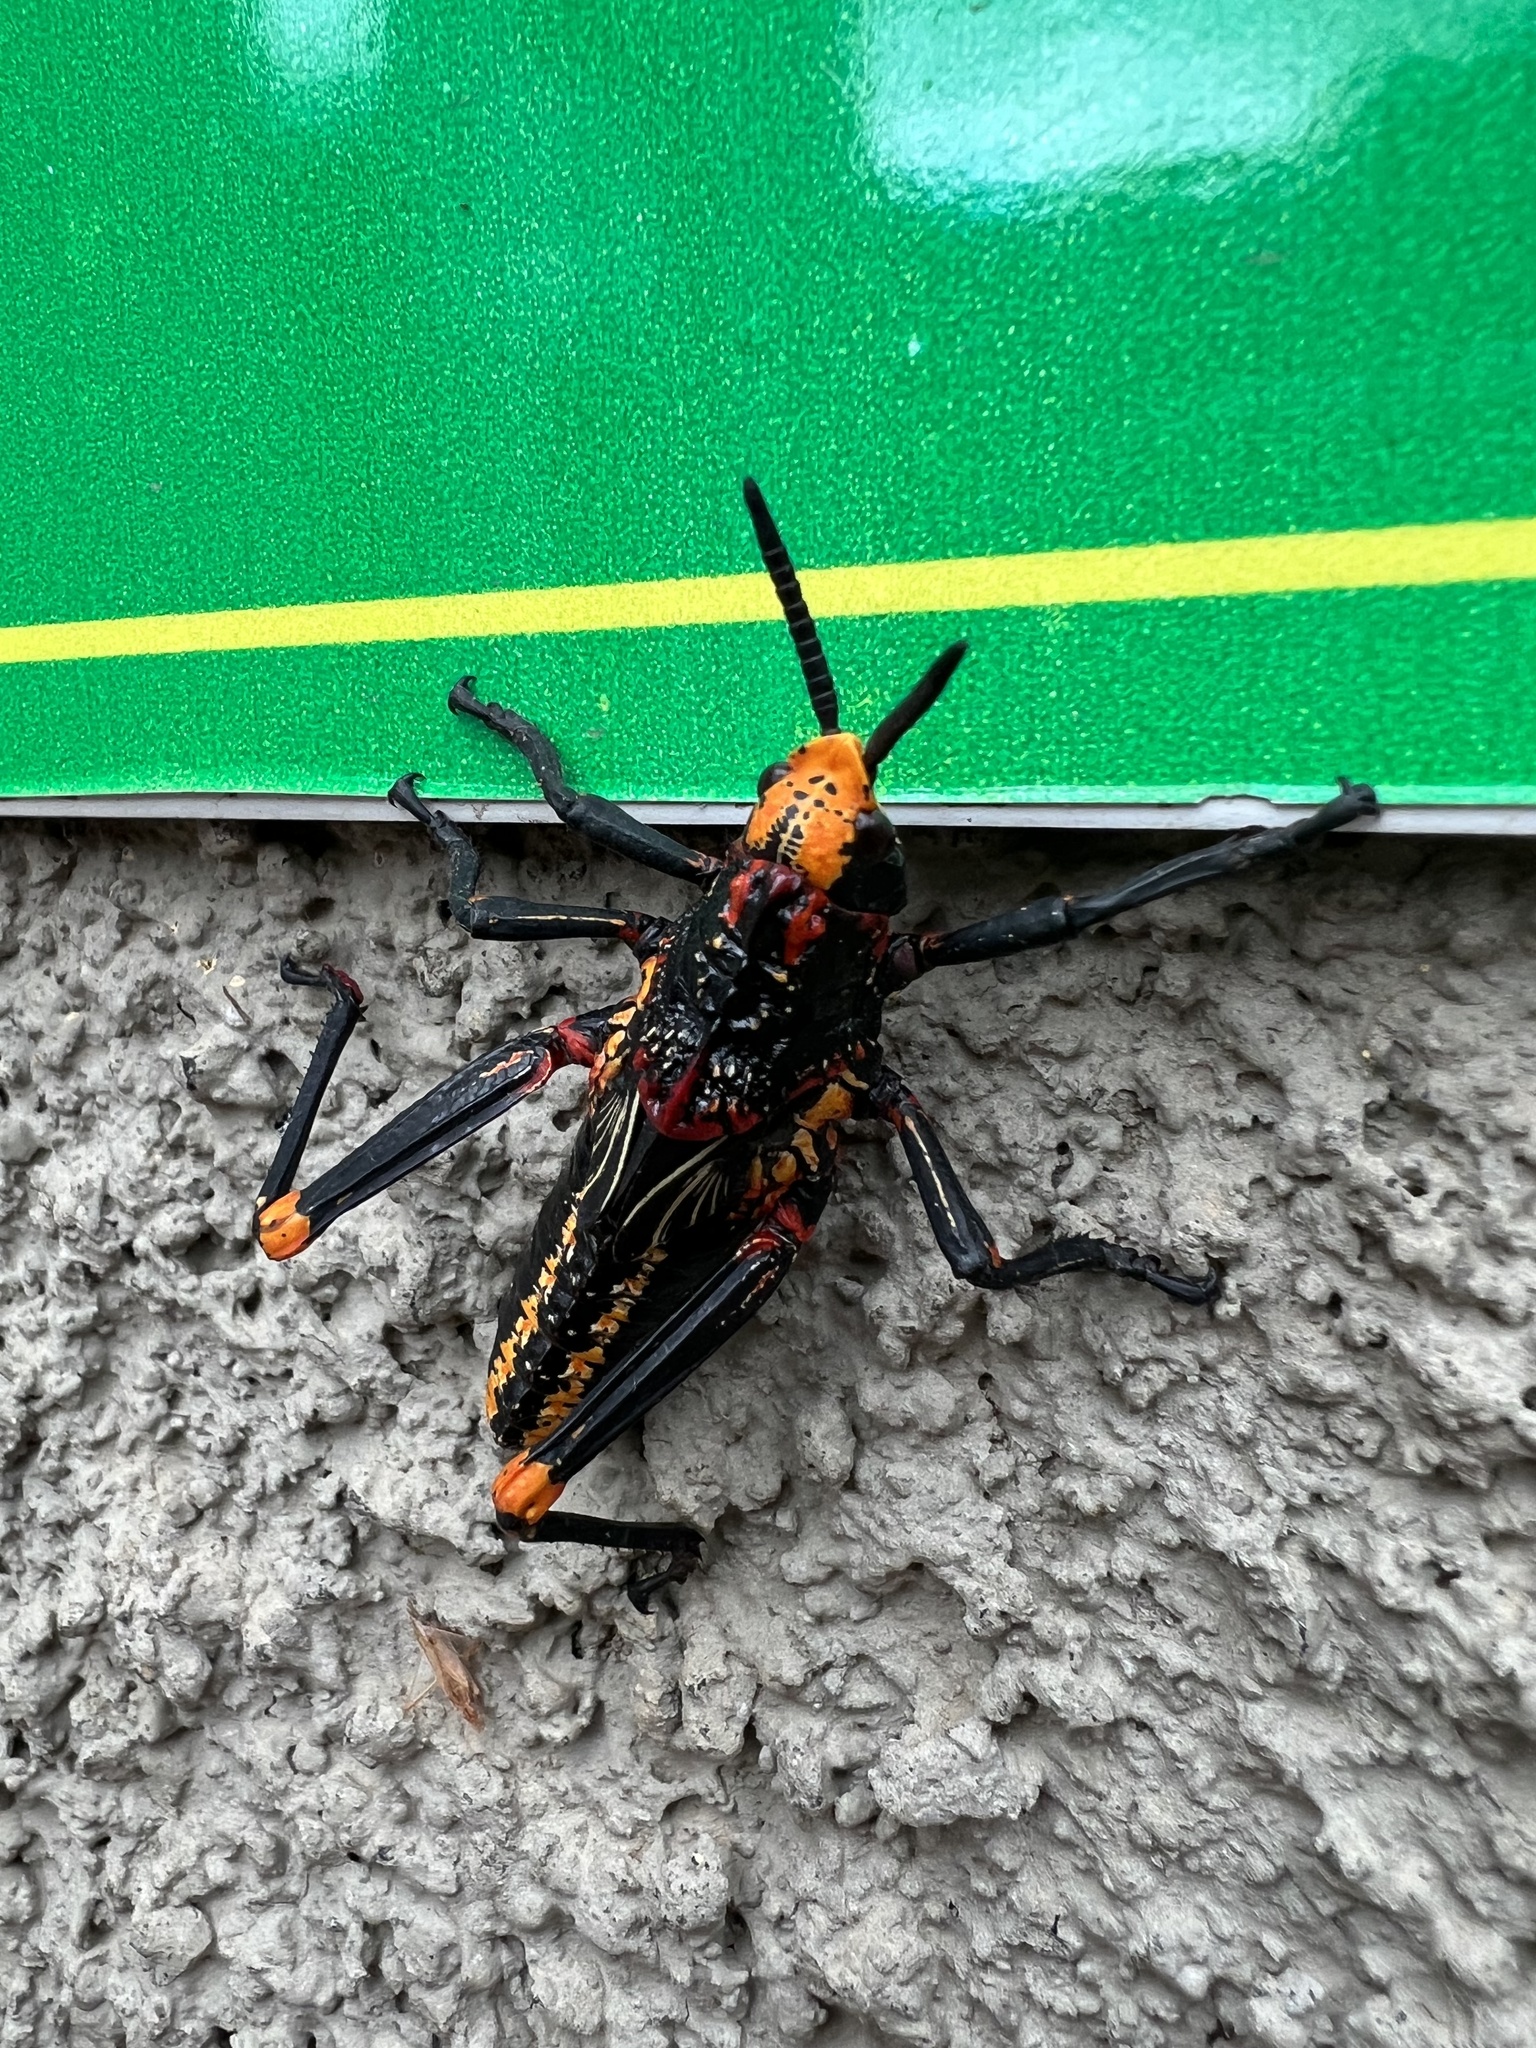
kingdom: Animalia
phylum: Arthropoda
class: Insecta
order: Orthoptera
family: Pyrgomorphidae
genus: Dictyophorus
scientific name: Dictyophorus spumans
